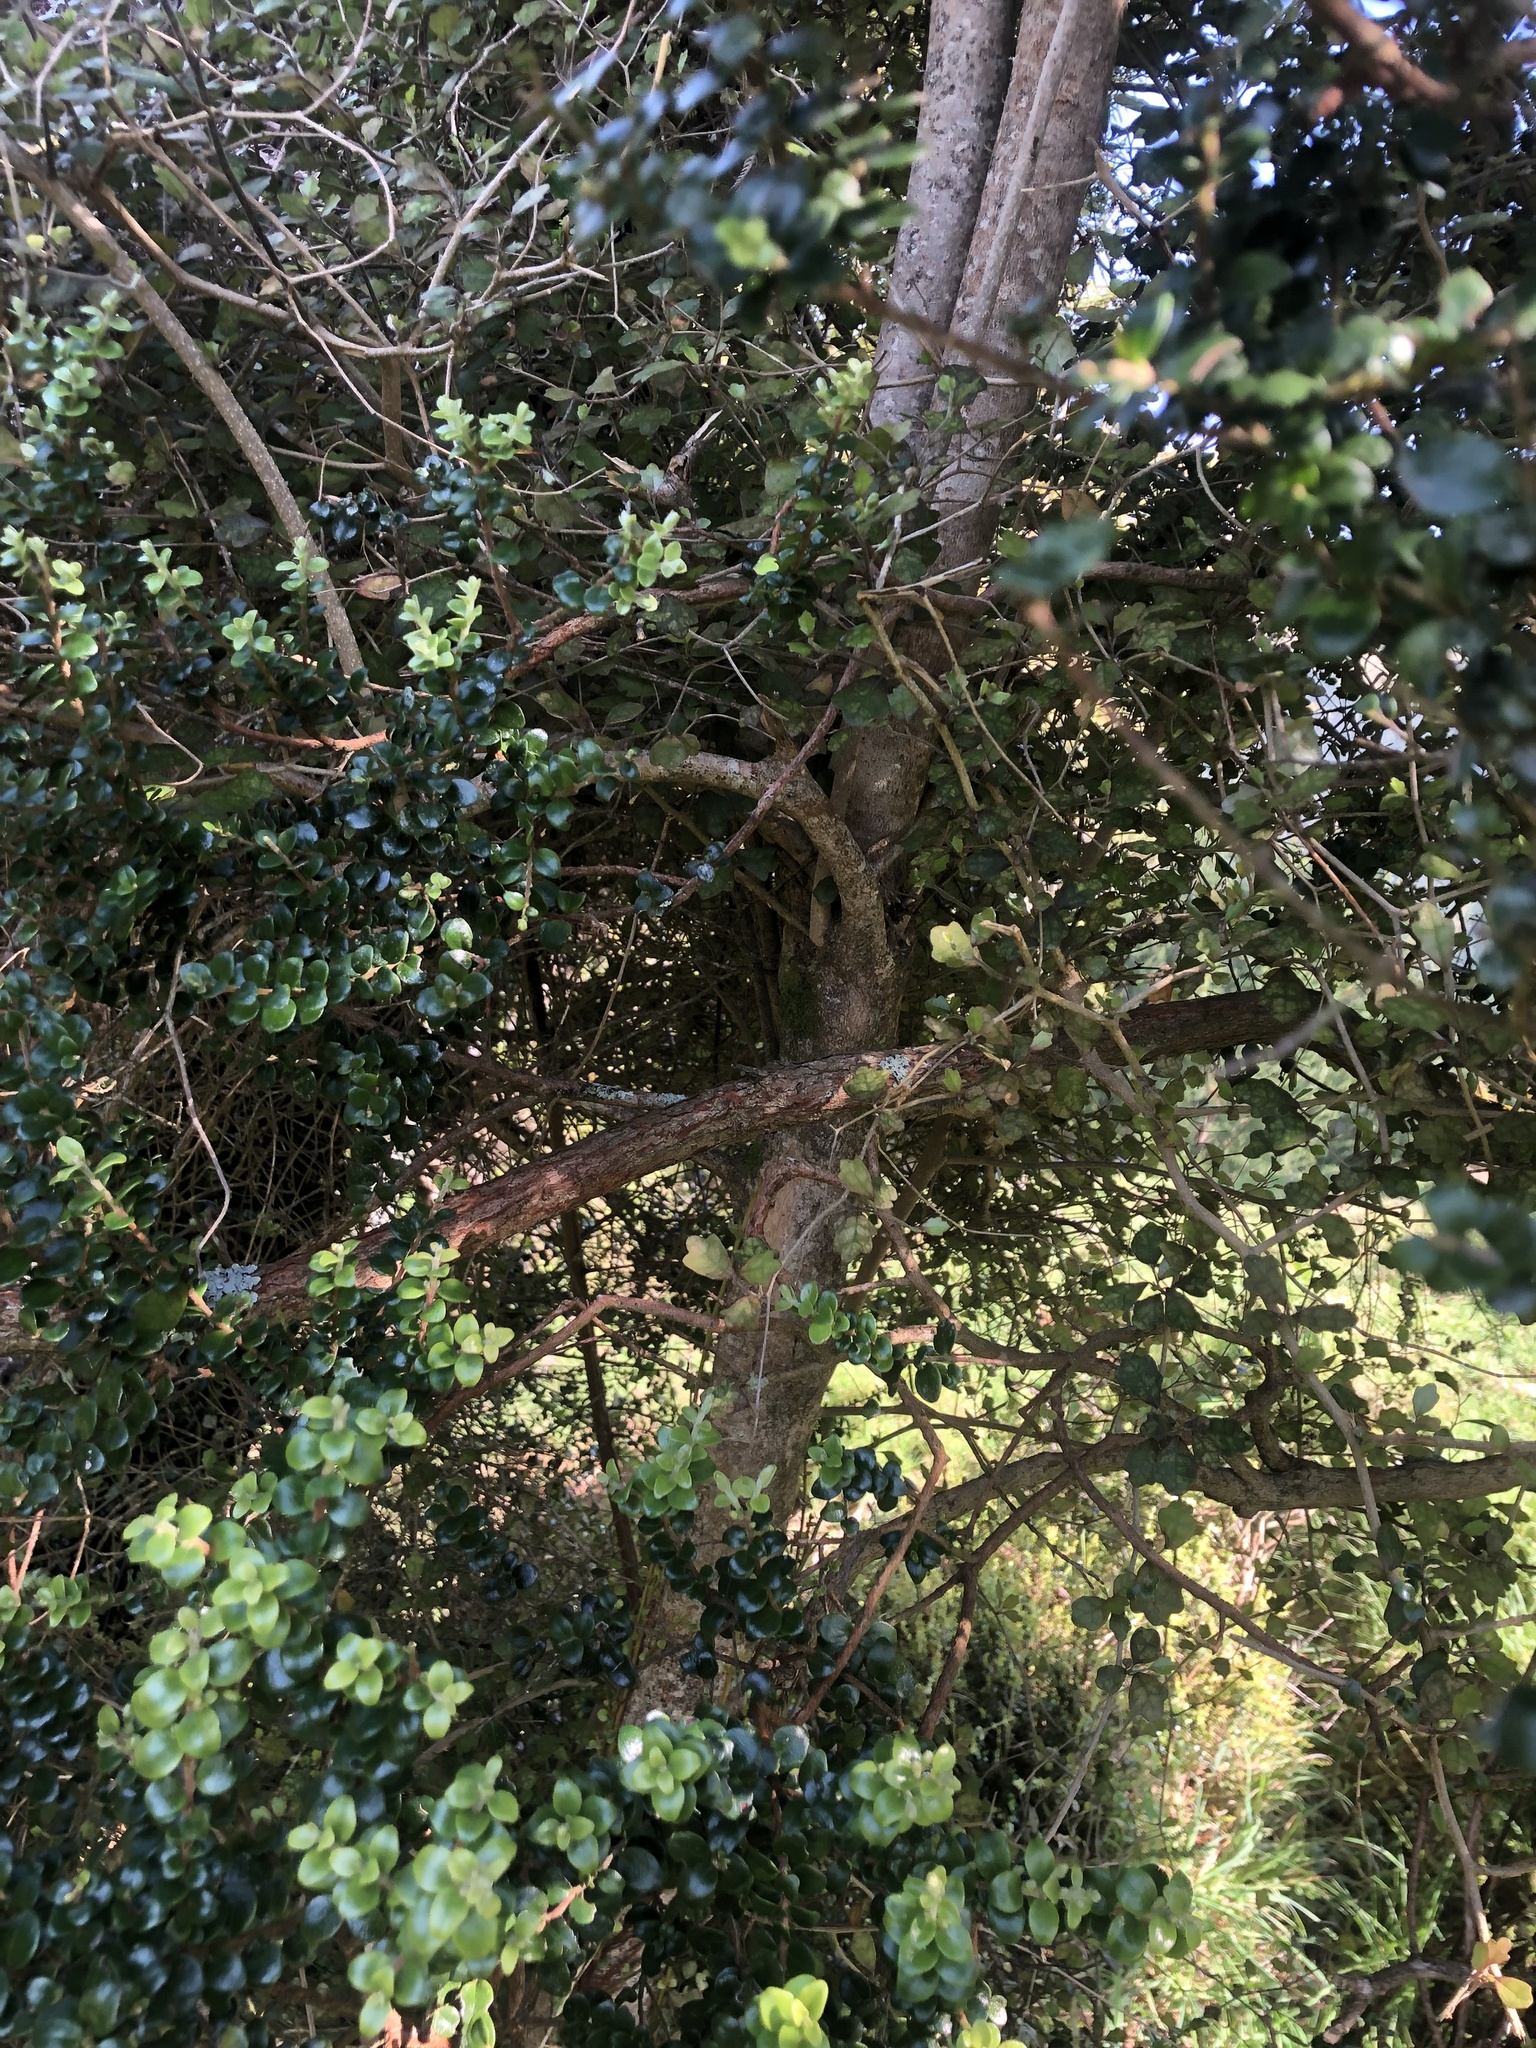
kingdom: Plantae
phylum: Tracheophyta
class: Magnoliopsida
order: Apiales
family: Pennantiaceae
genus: Pennantia
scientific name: Pennantia corymbosa
